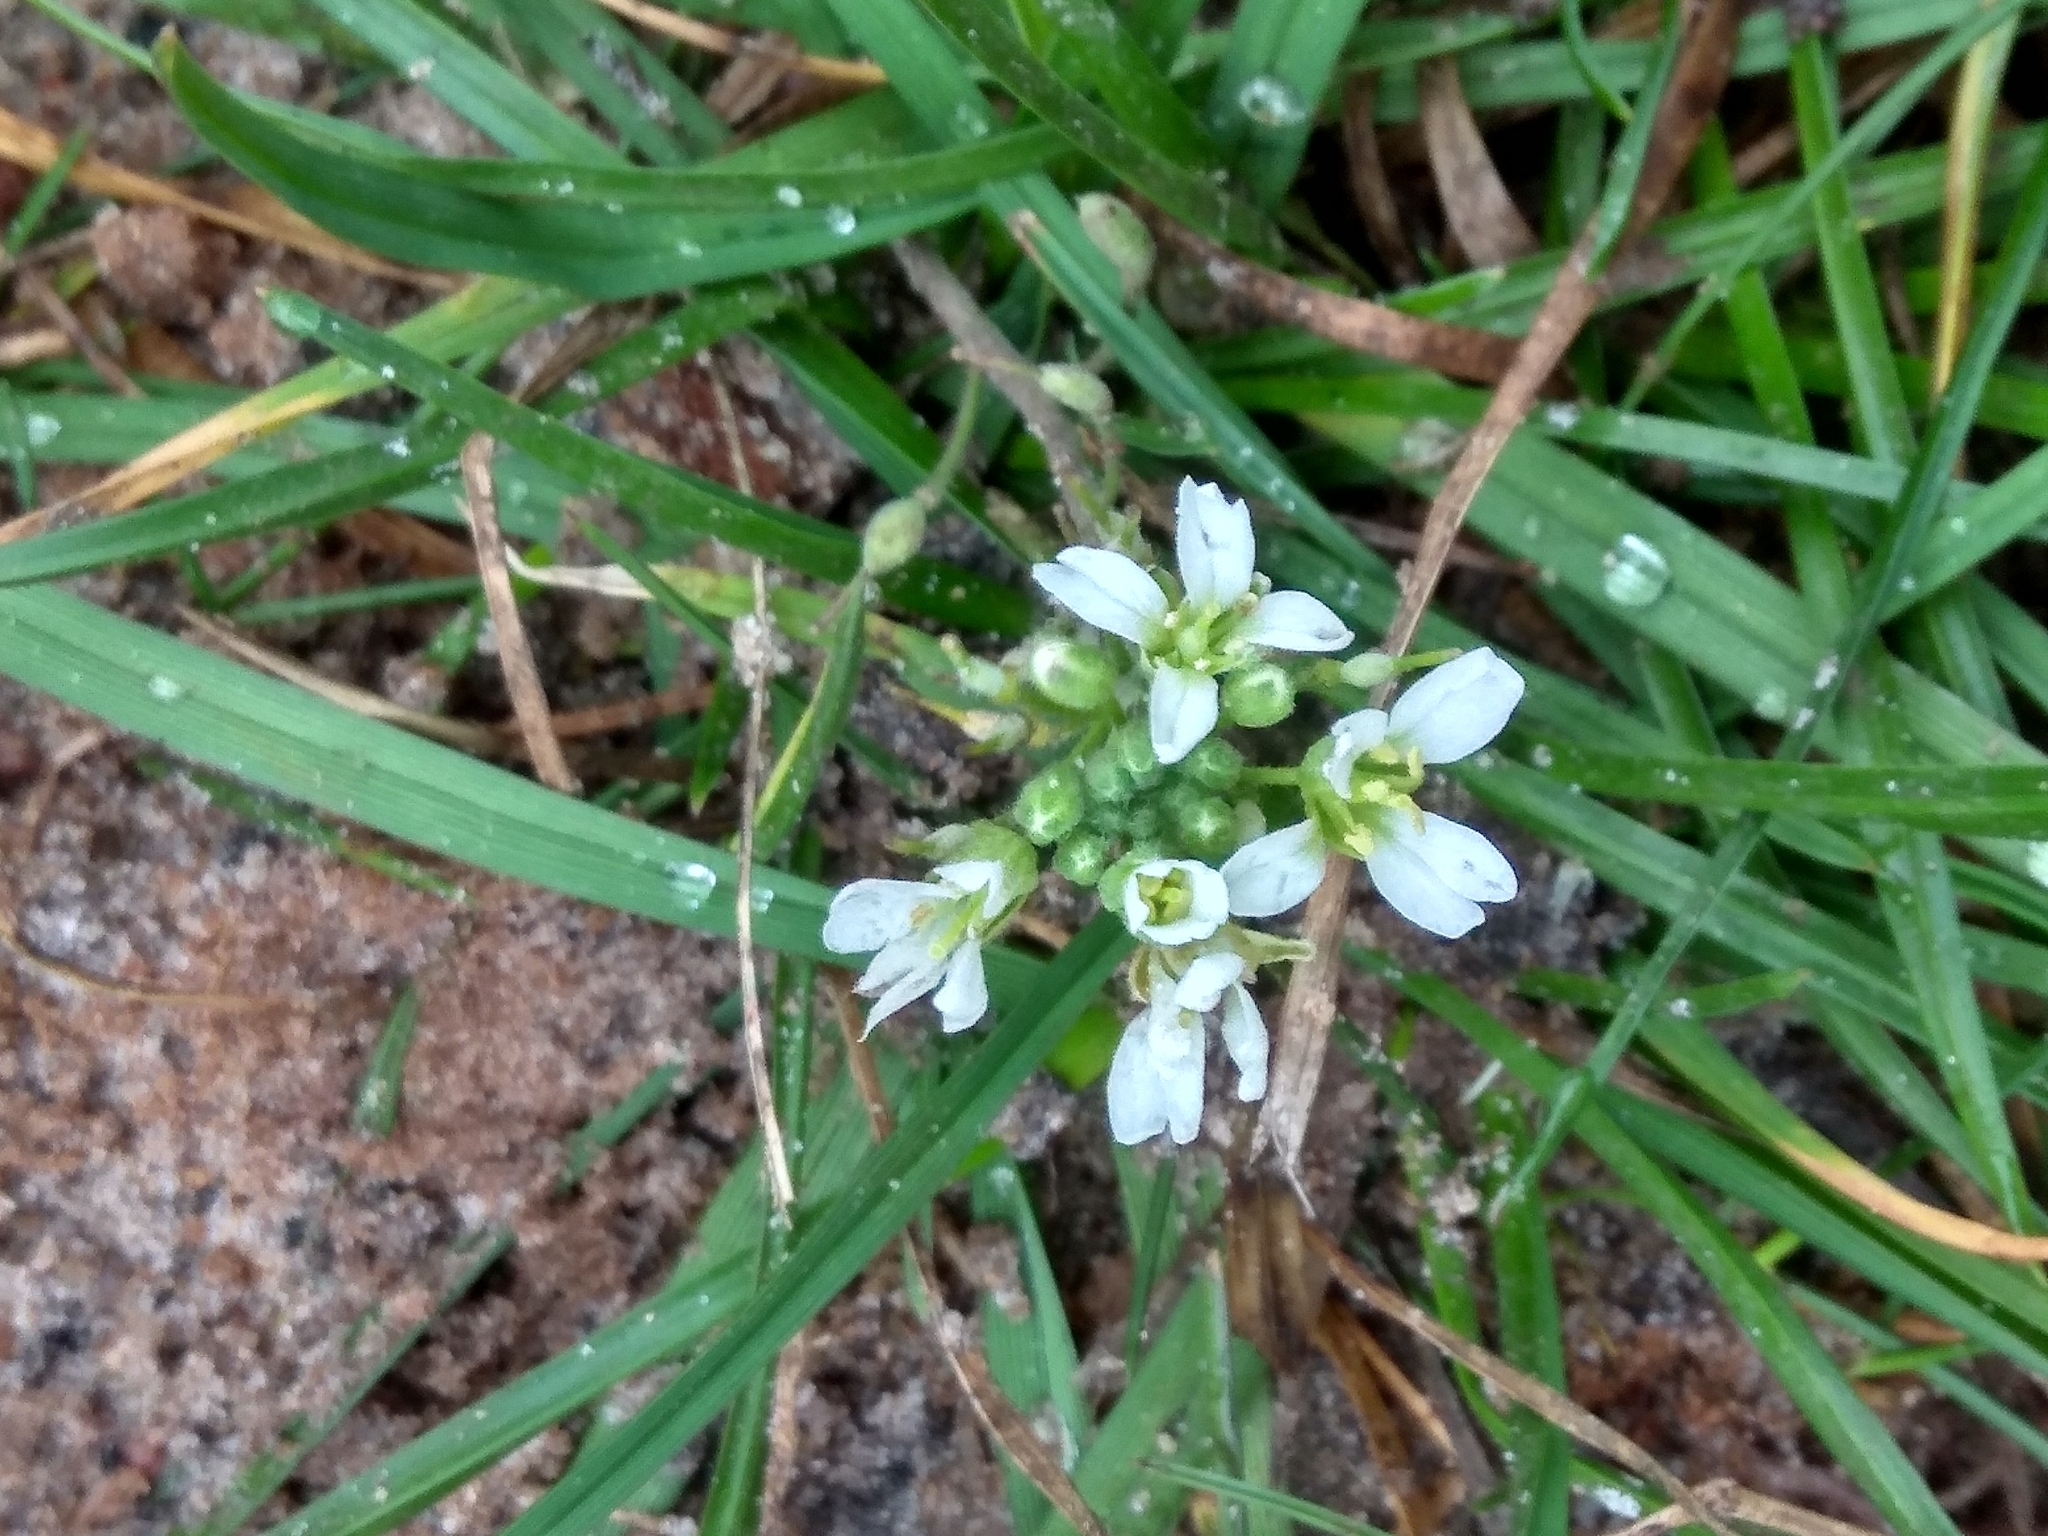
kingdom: Plantae
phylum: Tracheophyta
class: Magnoliopsida
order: Brassicales
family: Brassicaceae
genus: Berteroa
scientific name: Berteroa incana
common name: Hoary alison
